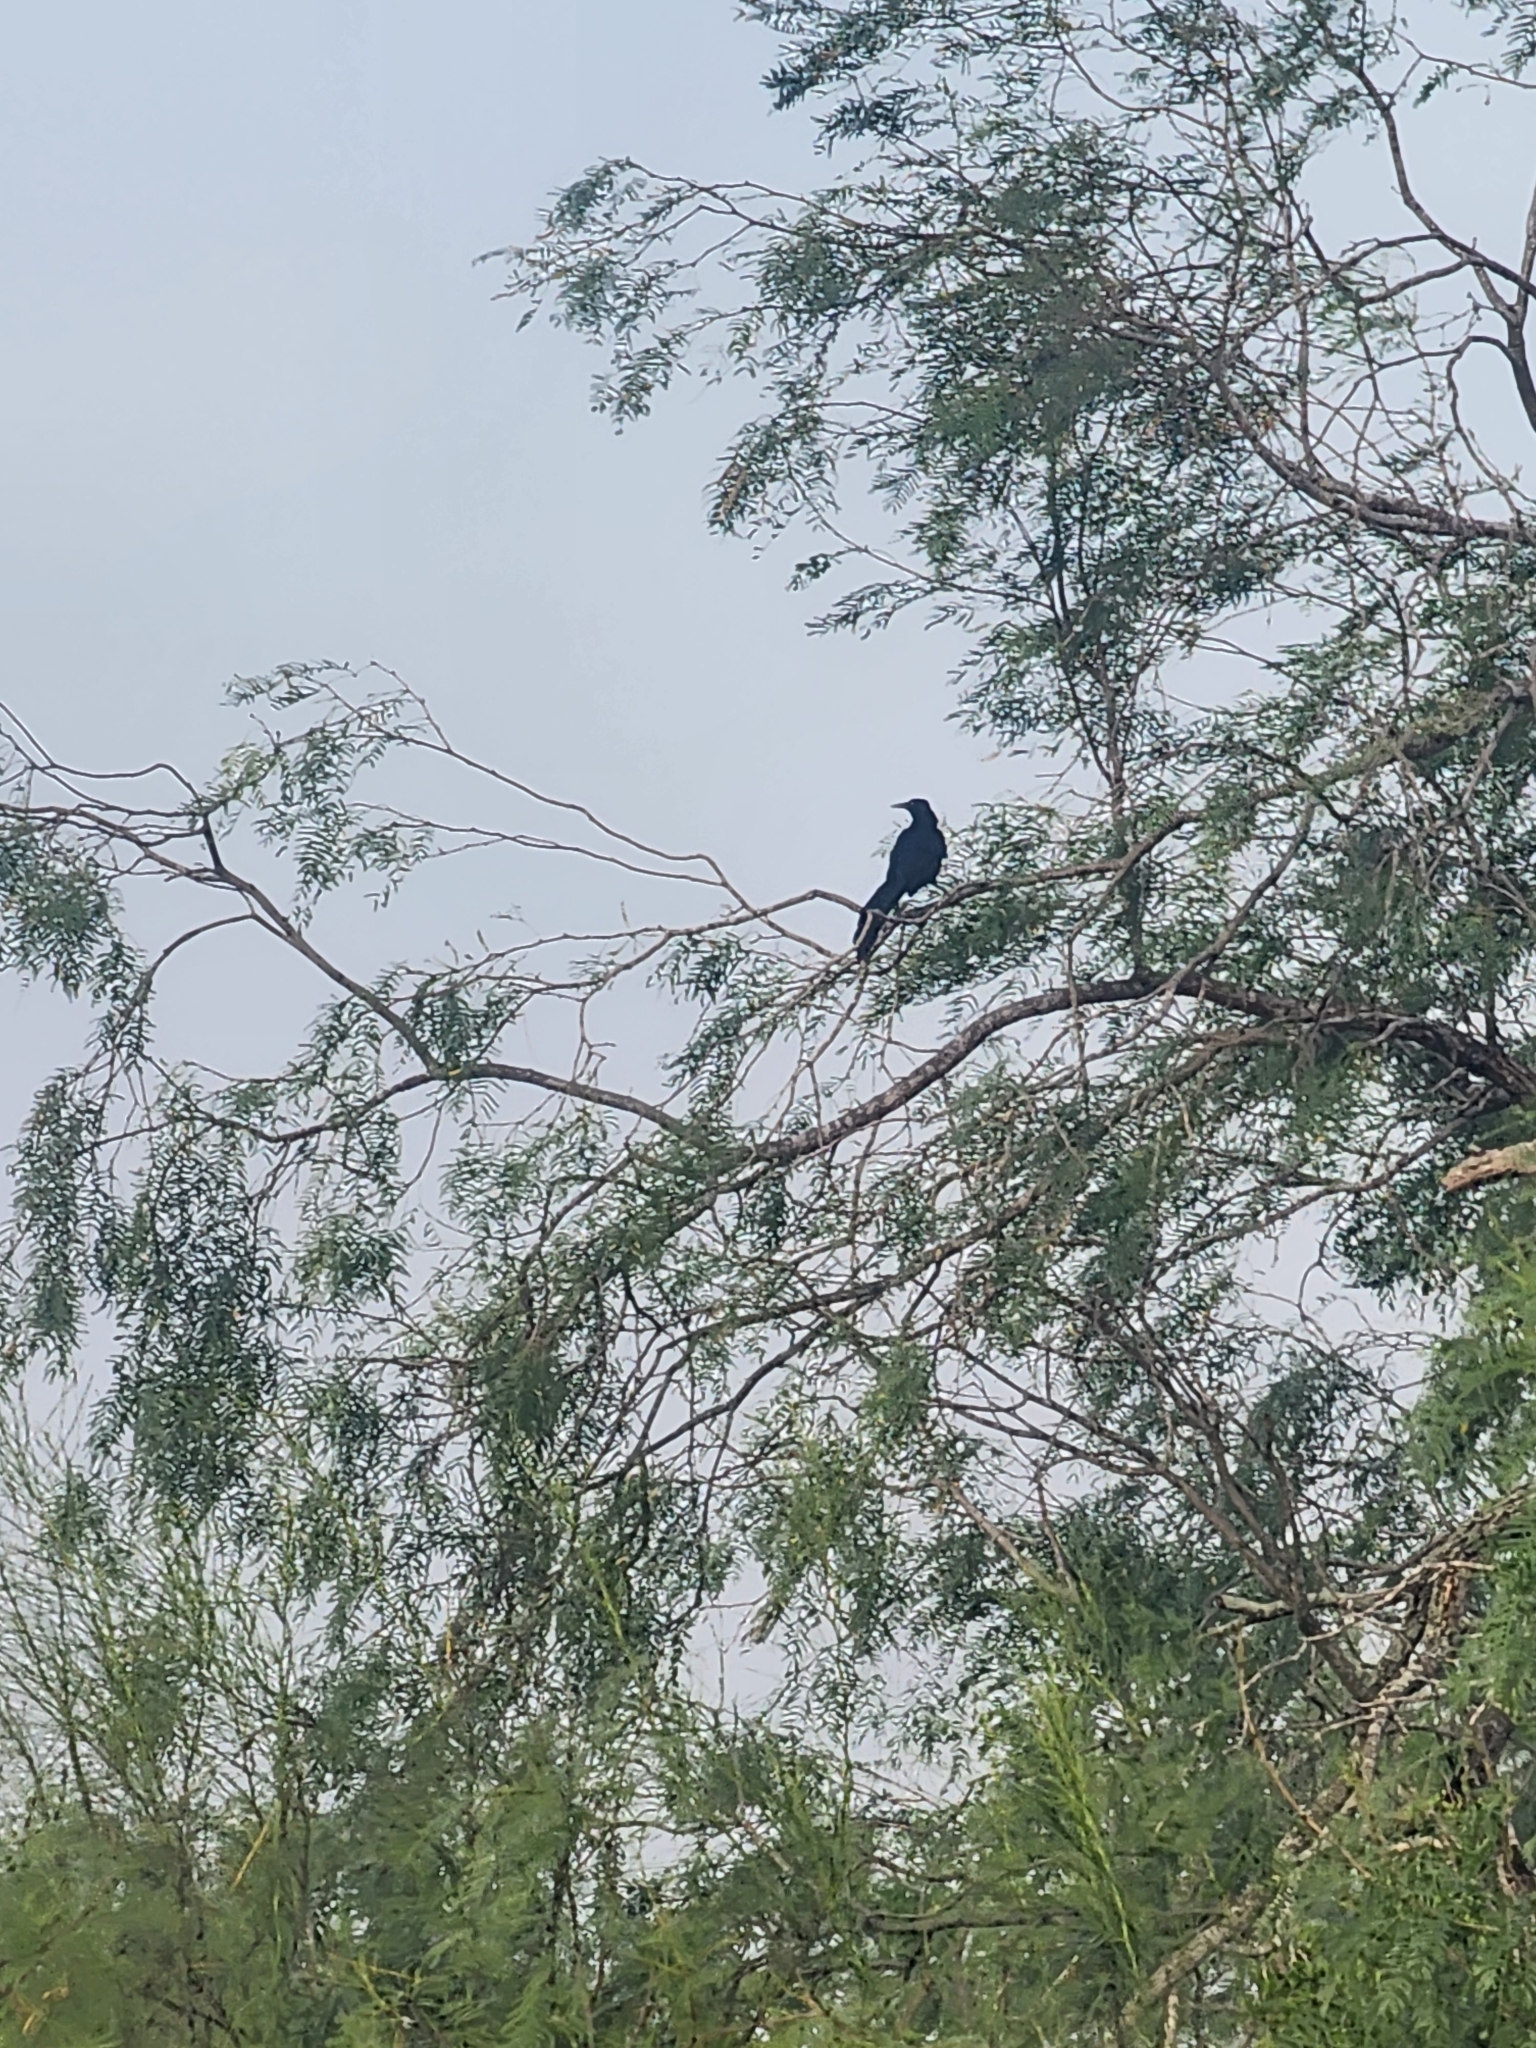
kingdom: Animalia
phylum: Chordata
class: Aves
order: Passeriformes
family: Icteridae
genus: Quiscalus
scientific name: Quiscalus mexicanus
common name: Great-tailed grackle
